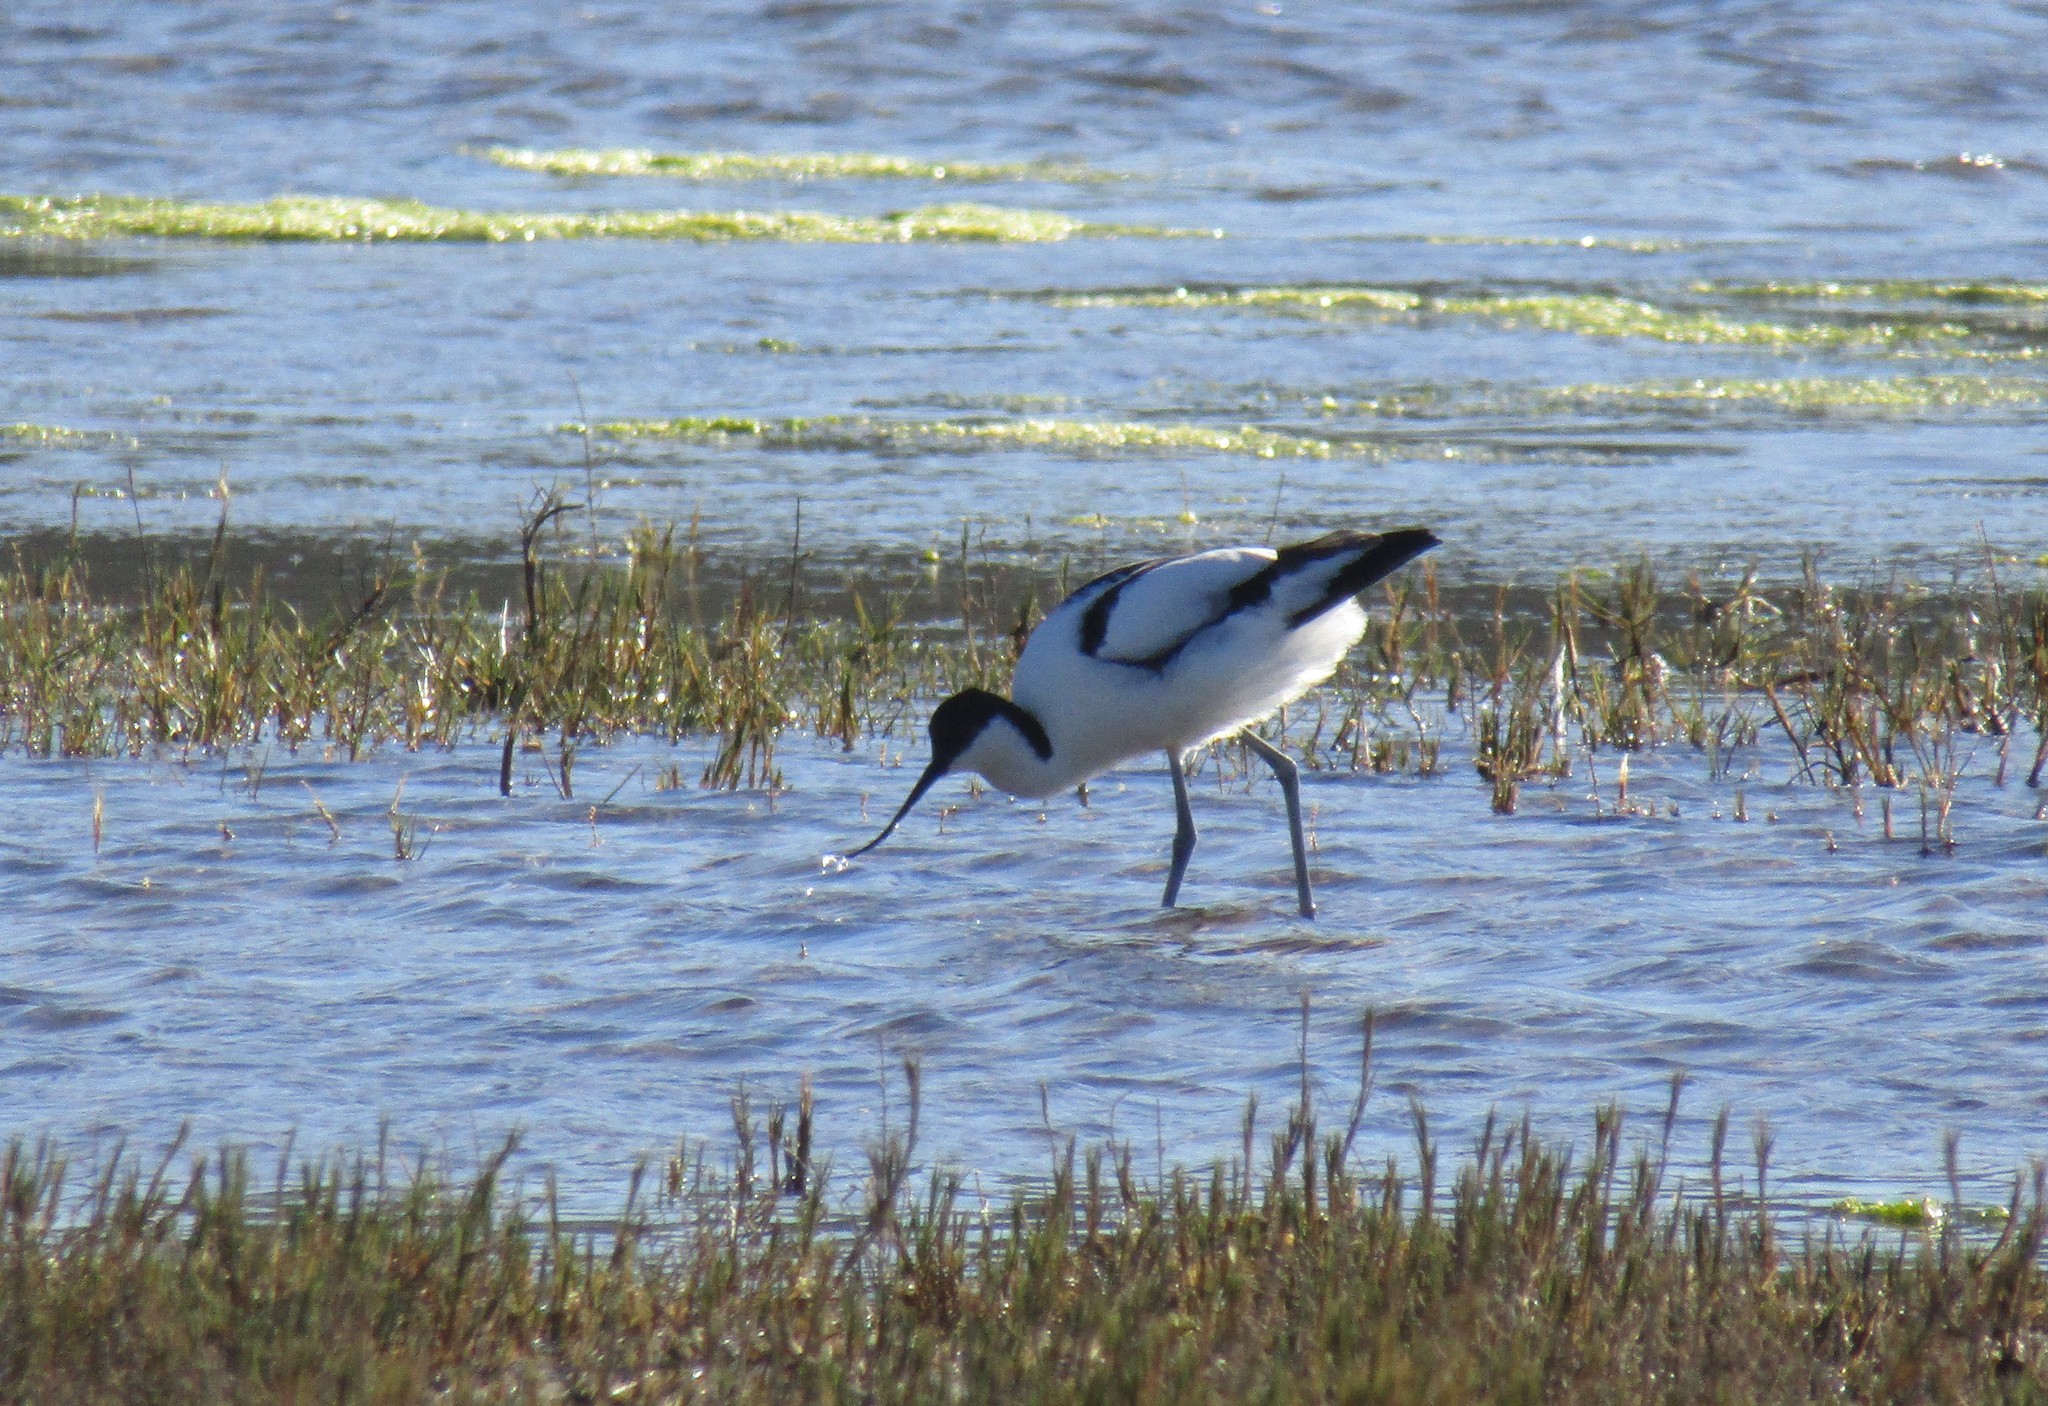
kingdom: Animalia
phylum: Chordata
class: Aves
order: Charadriiformes
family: Recurvirostridae
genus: Recurvirostra
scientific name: Recurvirostra avosetta
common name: Pied avocet
